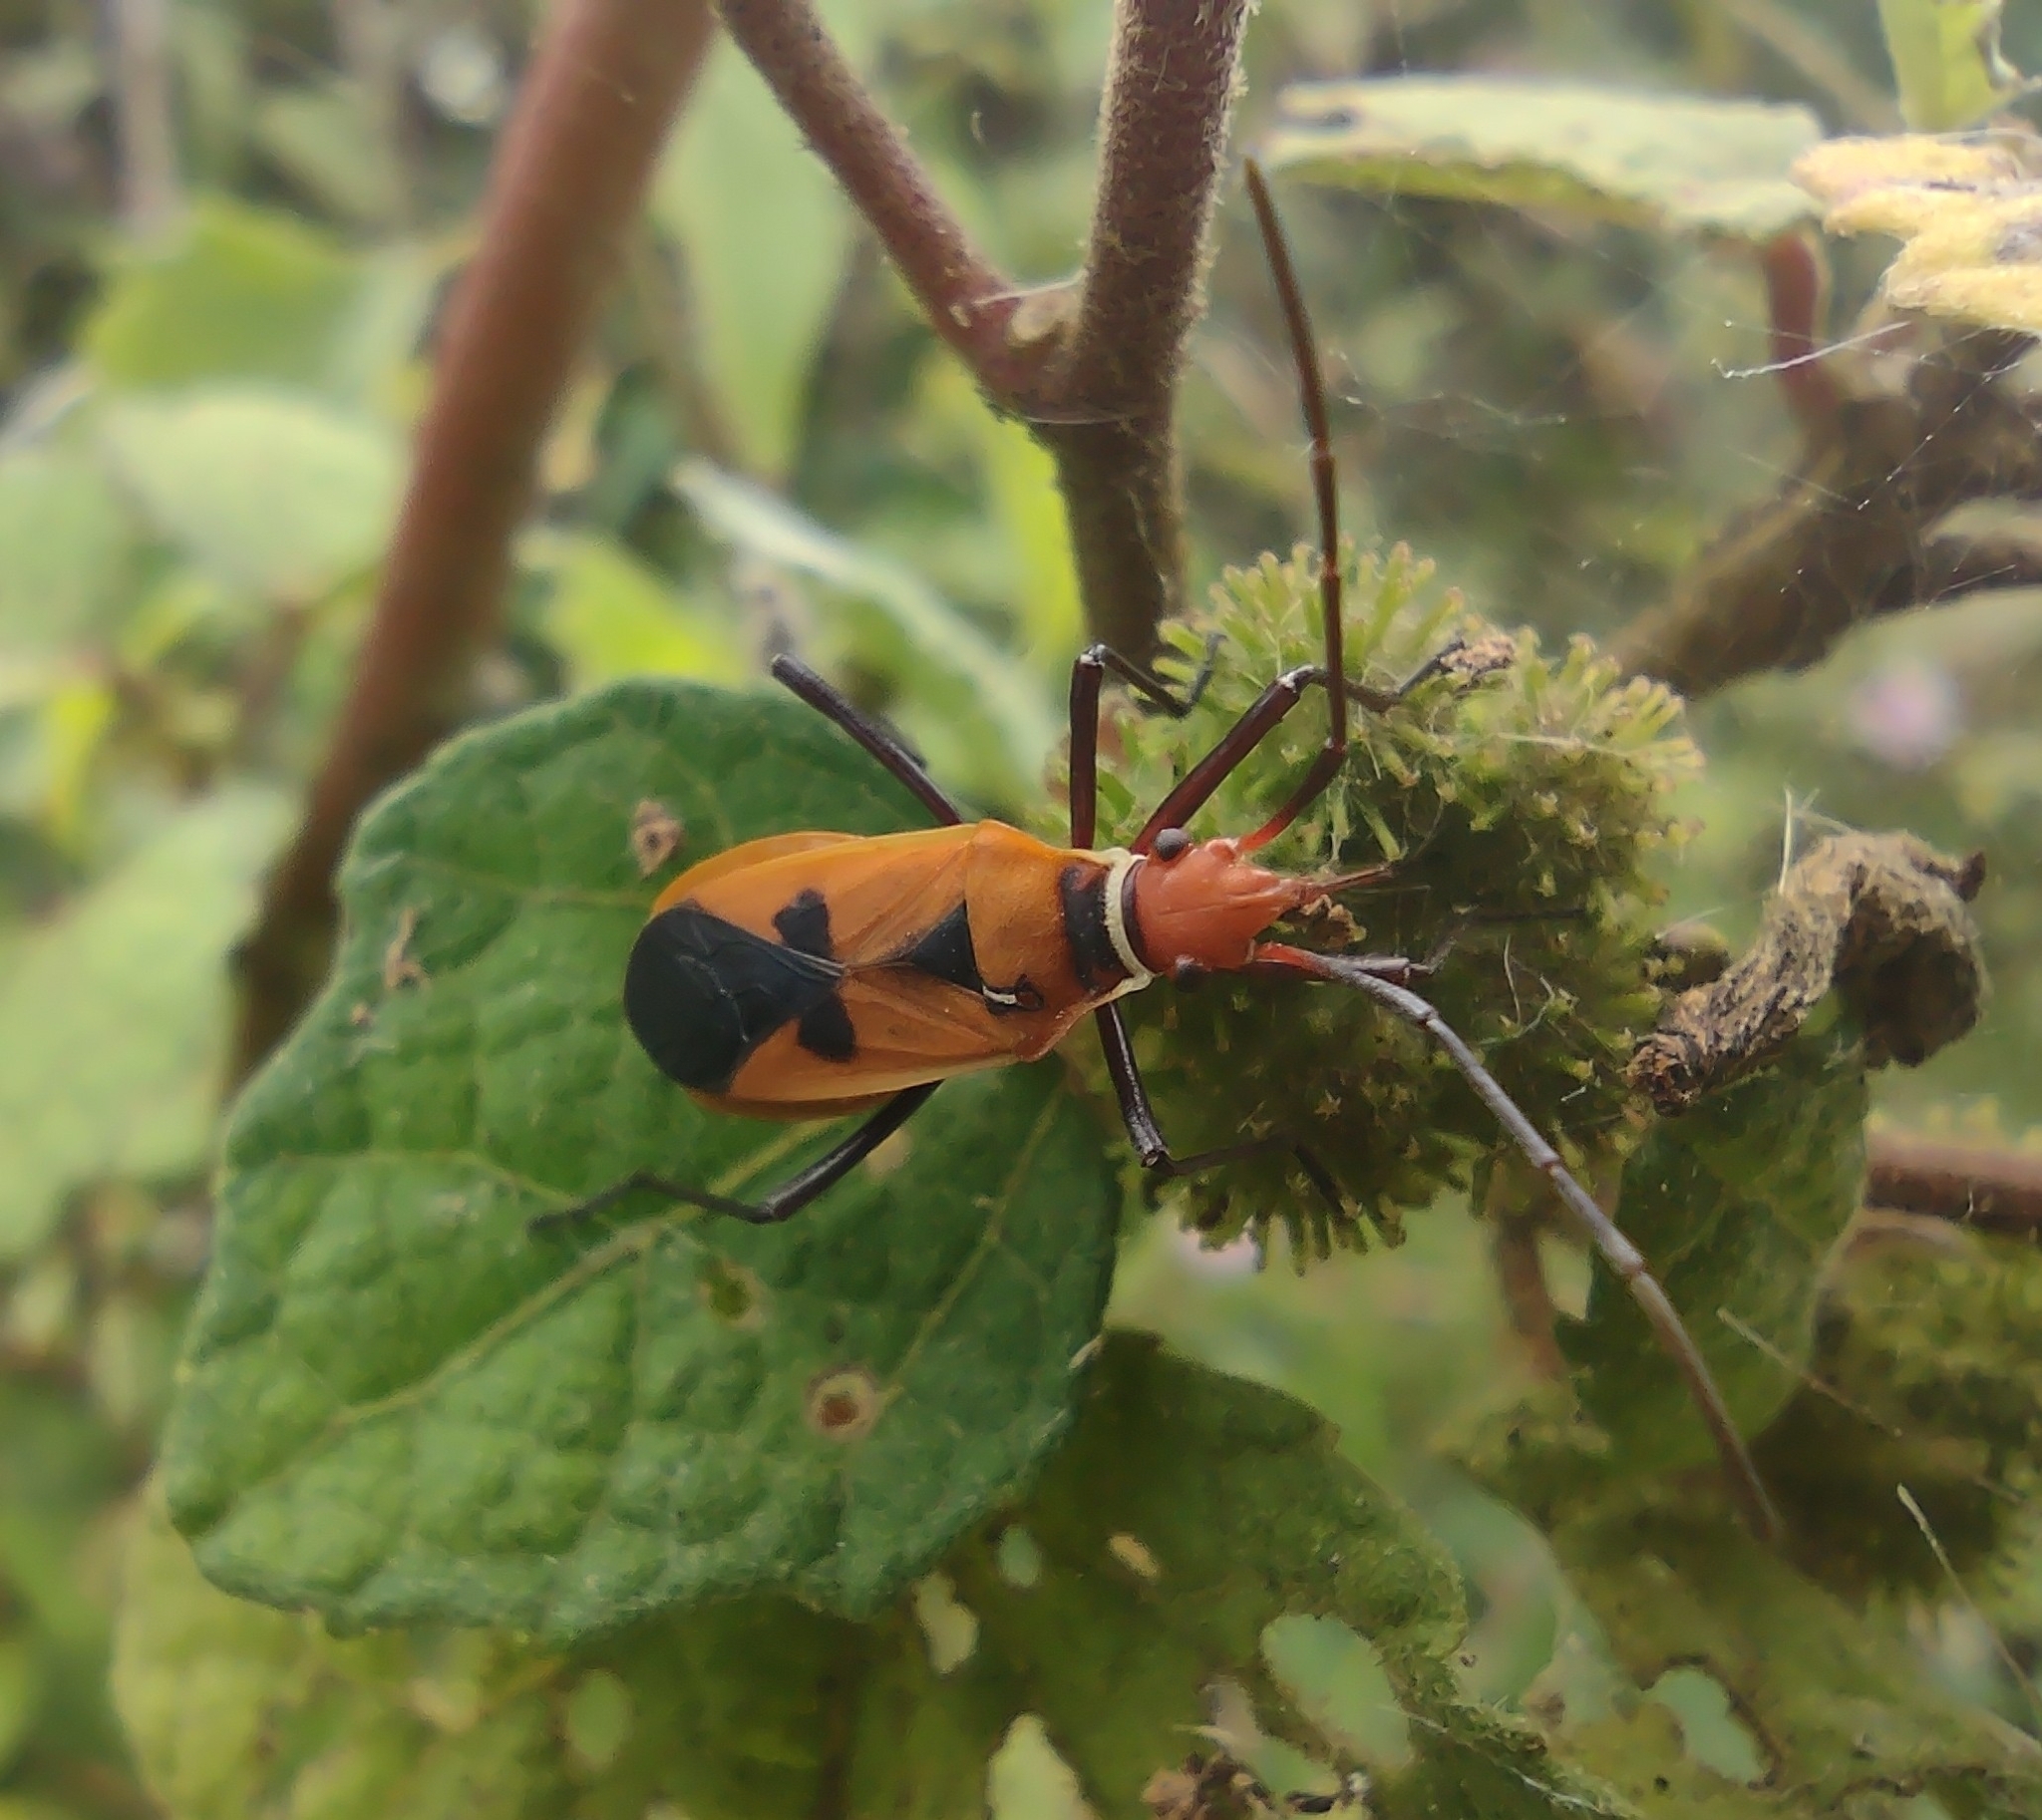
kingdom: Animalia
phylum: Arthropoda
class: Insecta
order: Hemiptera
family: Pyrrhocoridae
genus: Dysdercus
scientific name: Dysdercus poecilus
